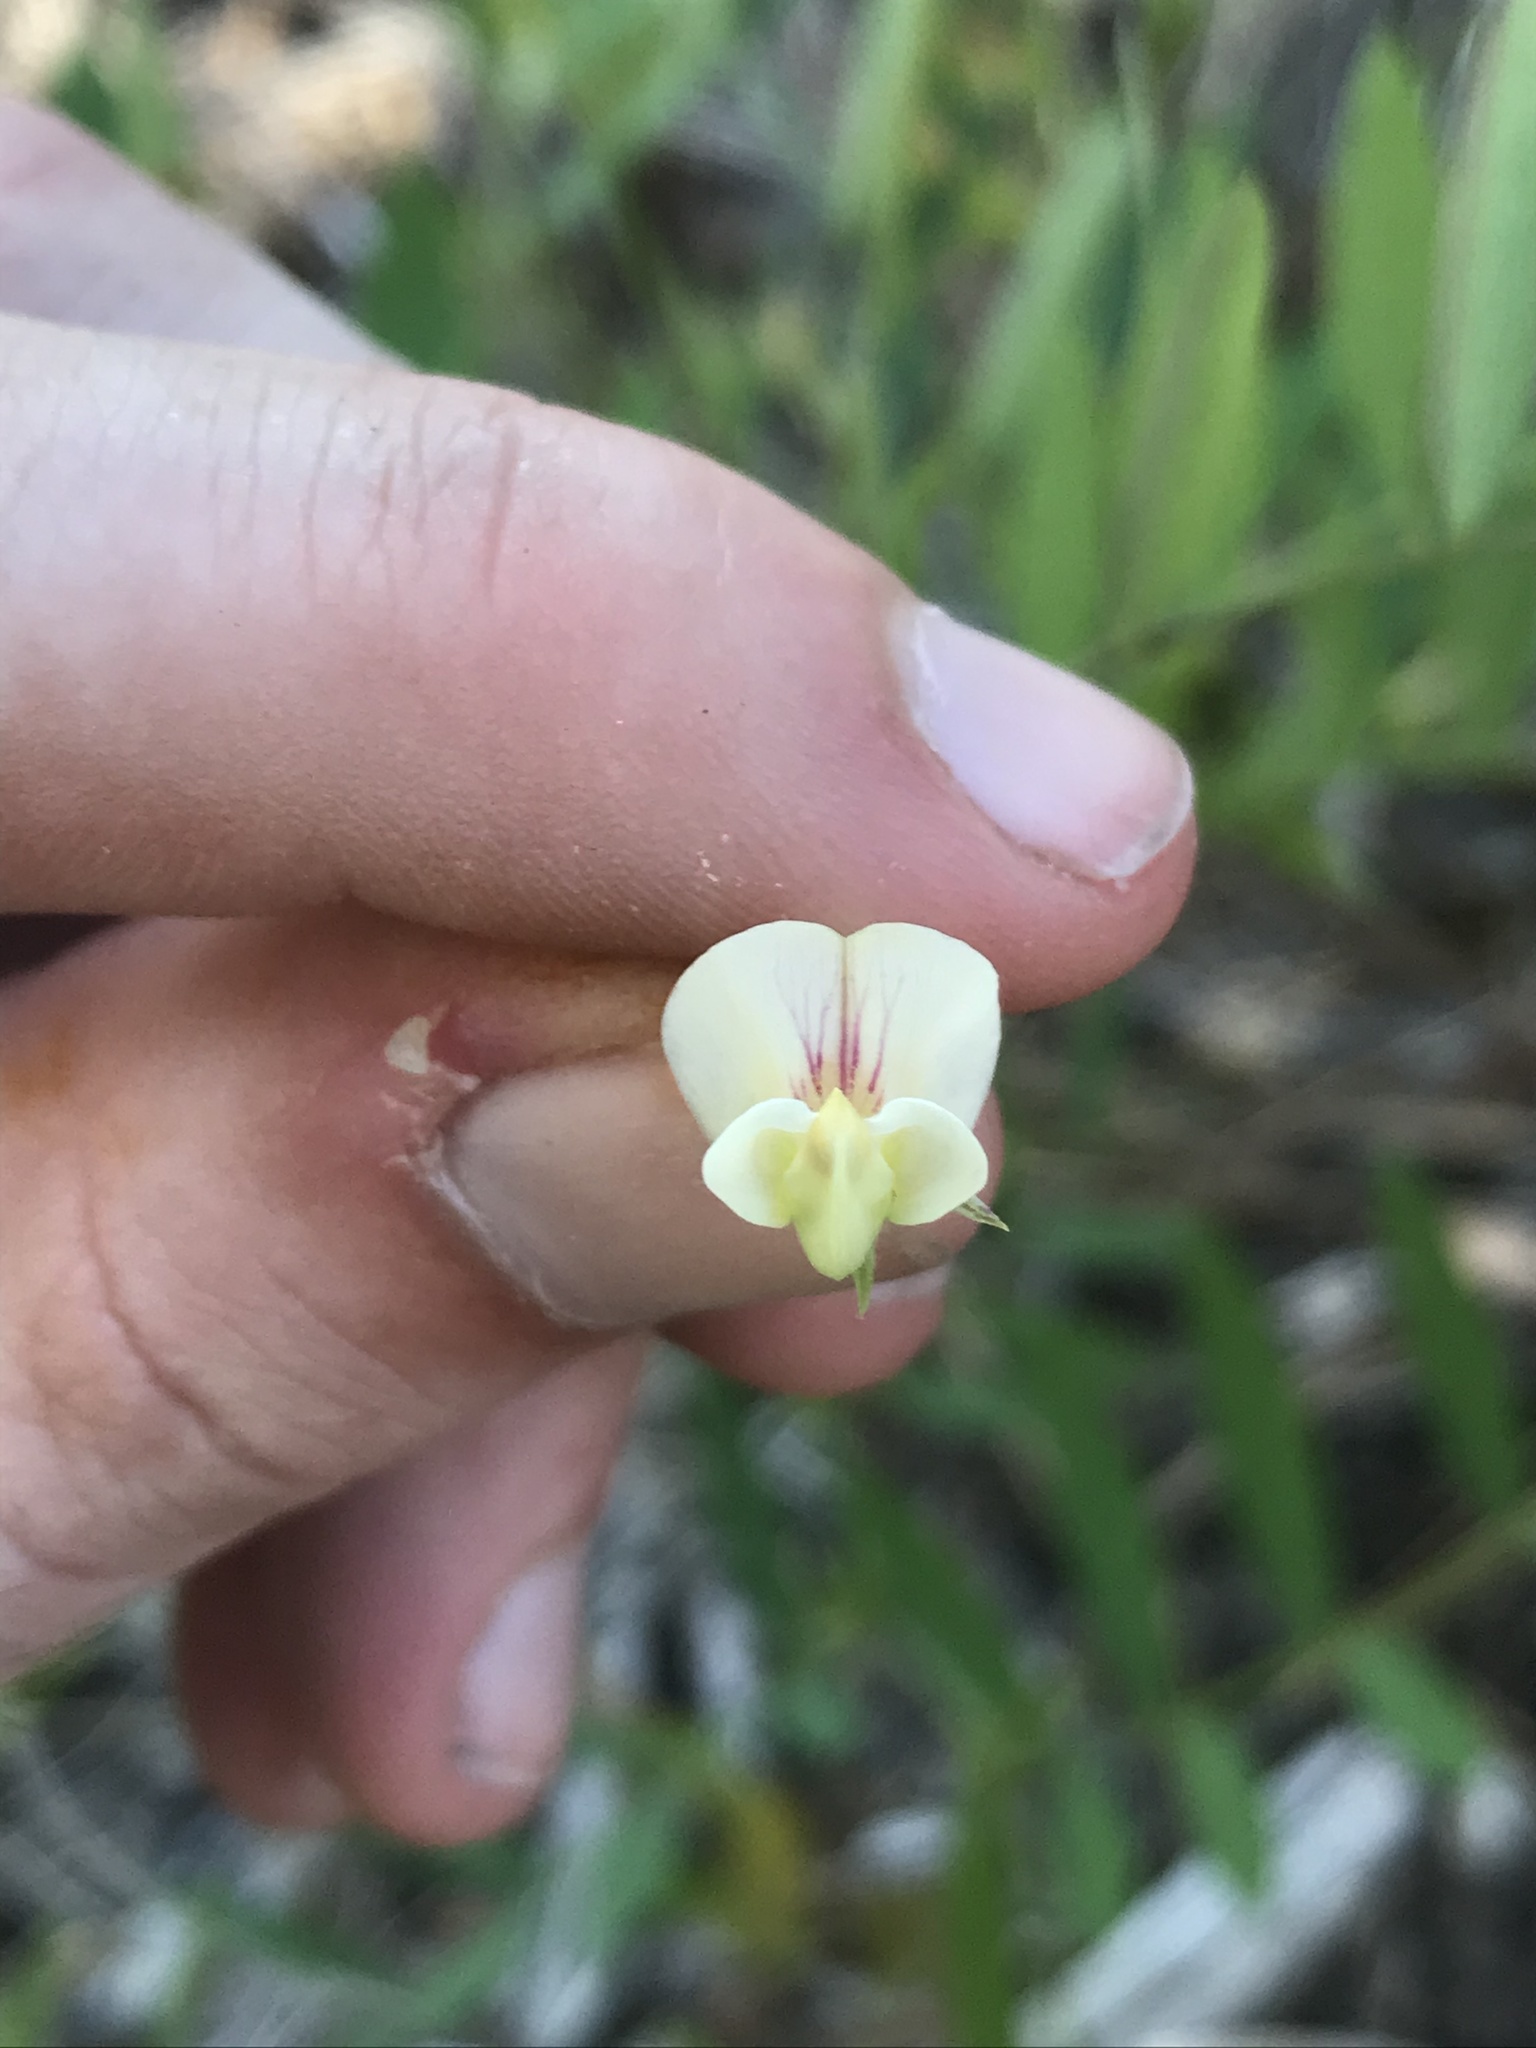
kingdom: Plantae
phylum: Tracheophyta
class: Magnoliopsida
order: Fabales
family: Fabaceae
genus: Lathyrus
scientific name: Lathyrus delnorticus
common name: Del norte-pea
